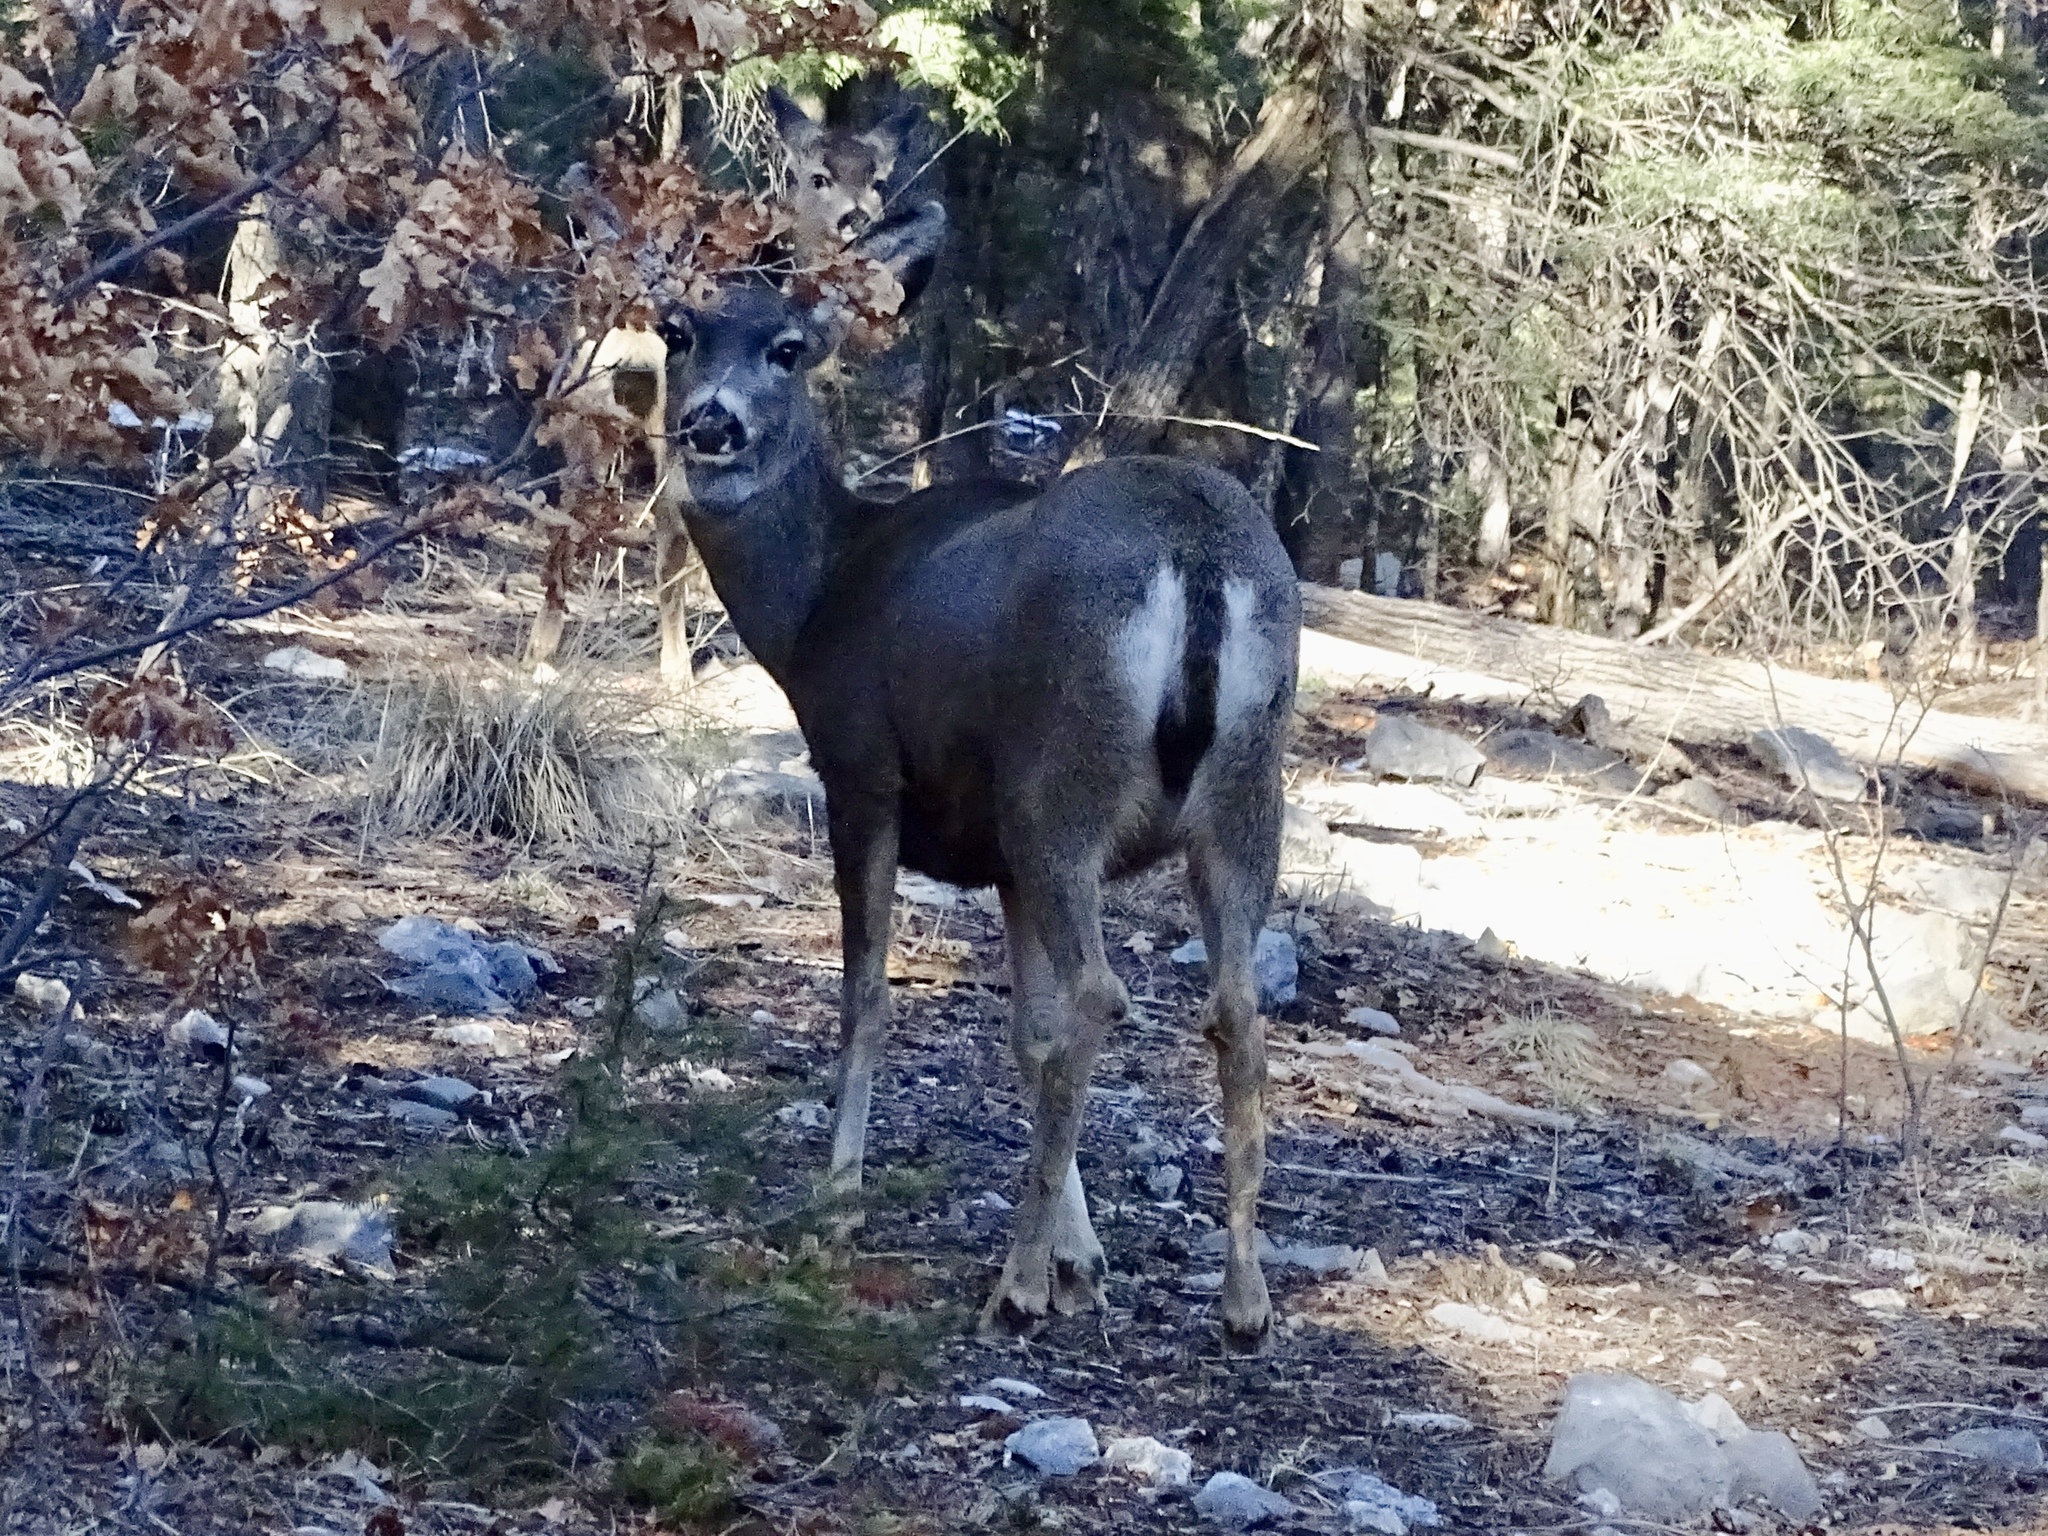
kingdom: Animalia
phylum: Chordata
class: Mammalia
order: Artiodactyla
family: Cervidae
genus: Odocoileus
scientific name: Odocoileus
